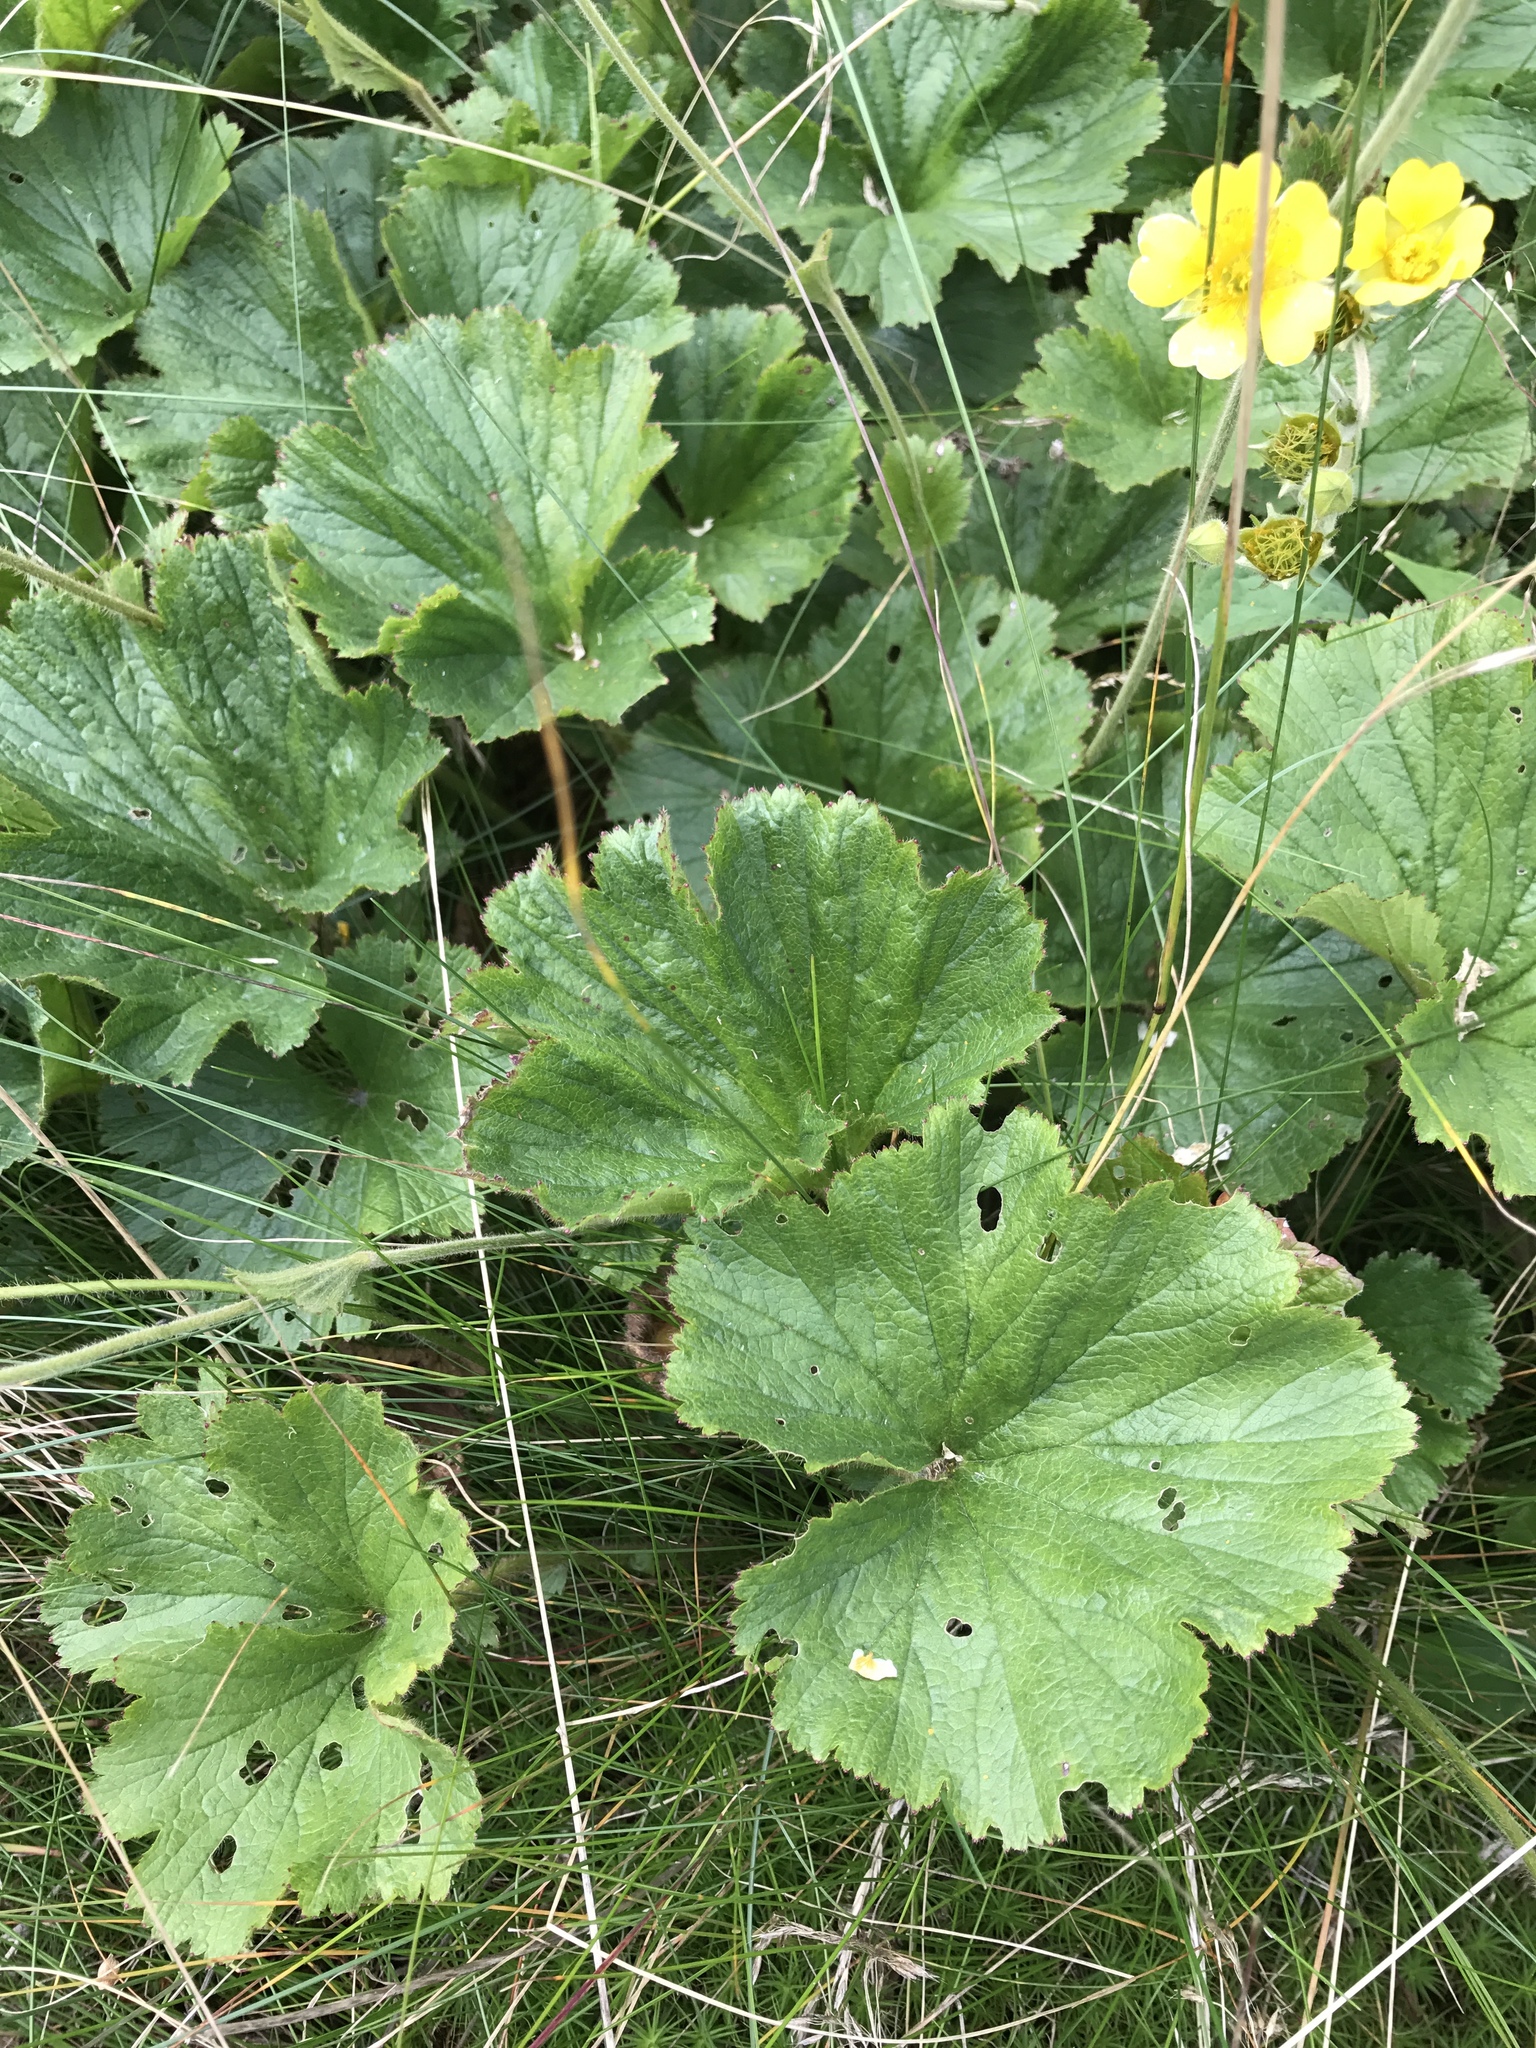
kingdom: Plantae
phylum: Tracheophyta
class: Magnoliopsida
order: Rosales
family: Rosaceae
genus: Geum
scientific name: Geum radiatum
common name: Spreaded avens
